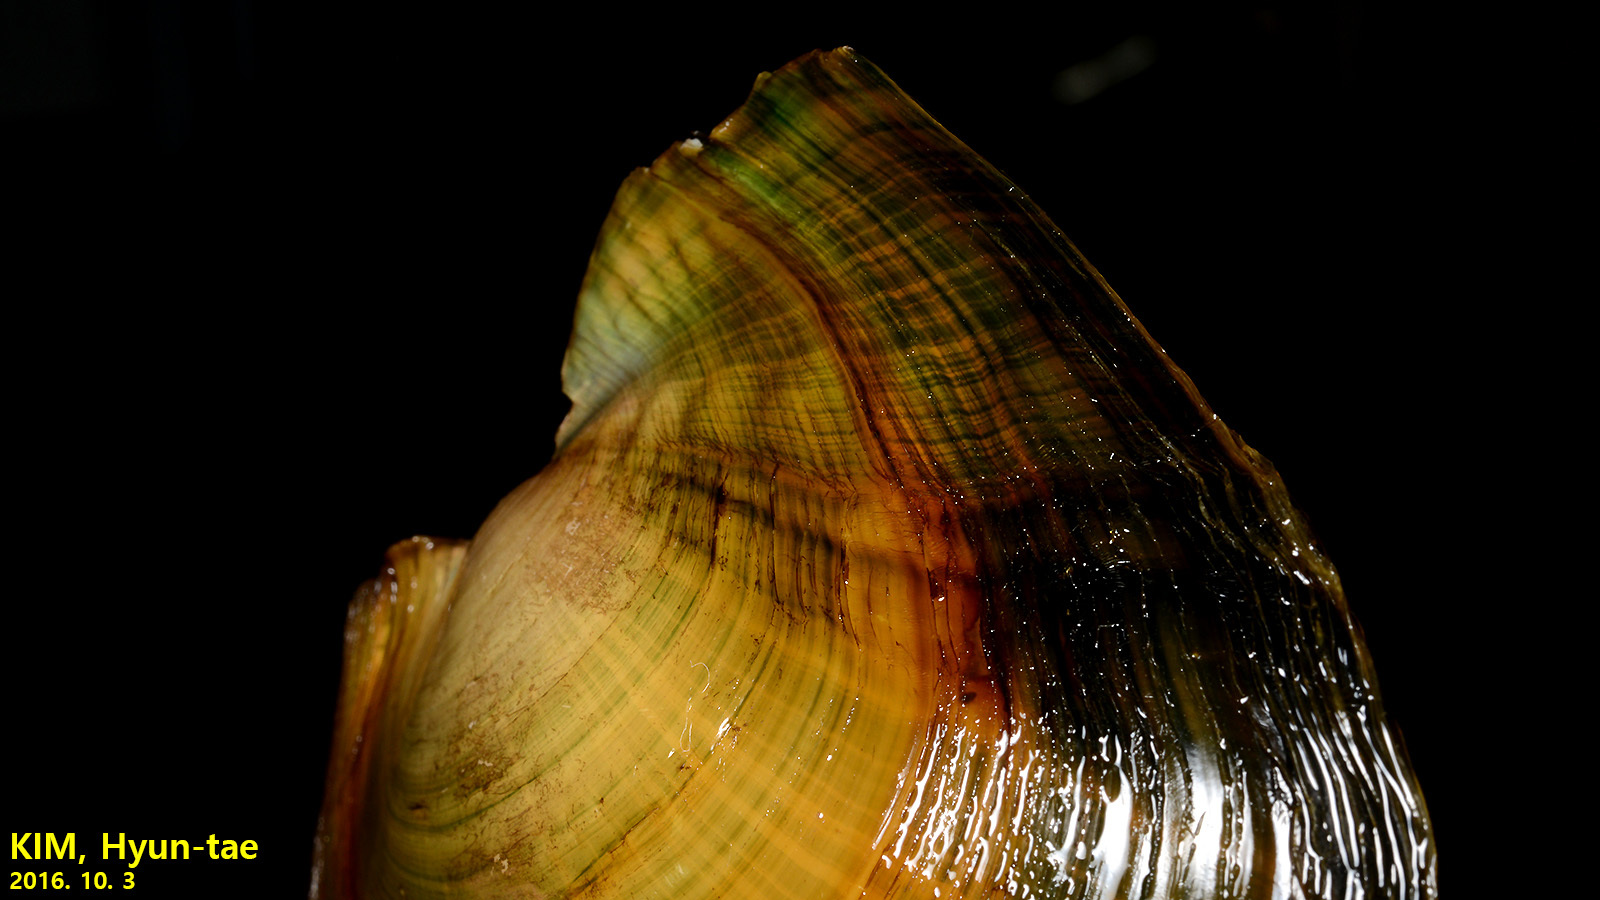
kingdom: Animalia
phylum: Mollusca
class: Bivalvia
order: Unionida
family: Unionidae
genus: Cristaria
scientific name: Cristaria plicata
